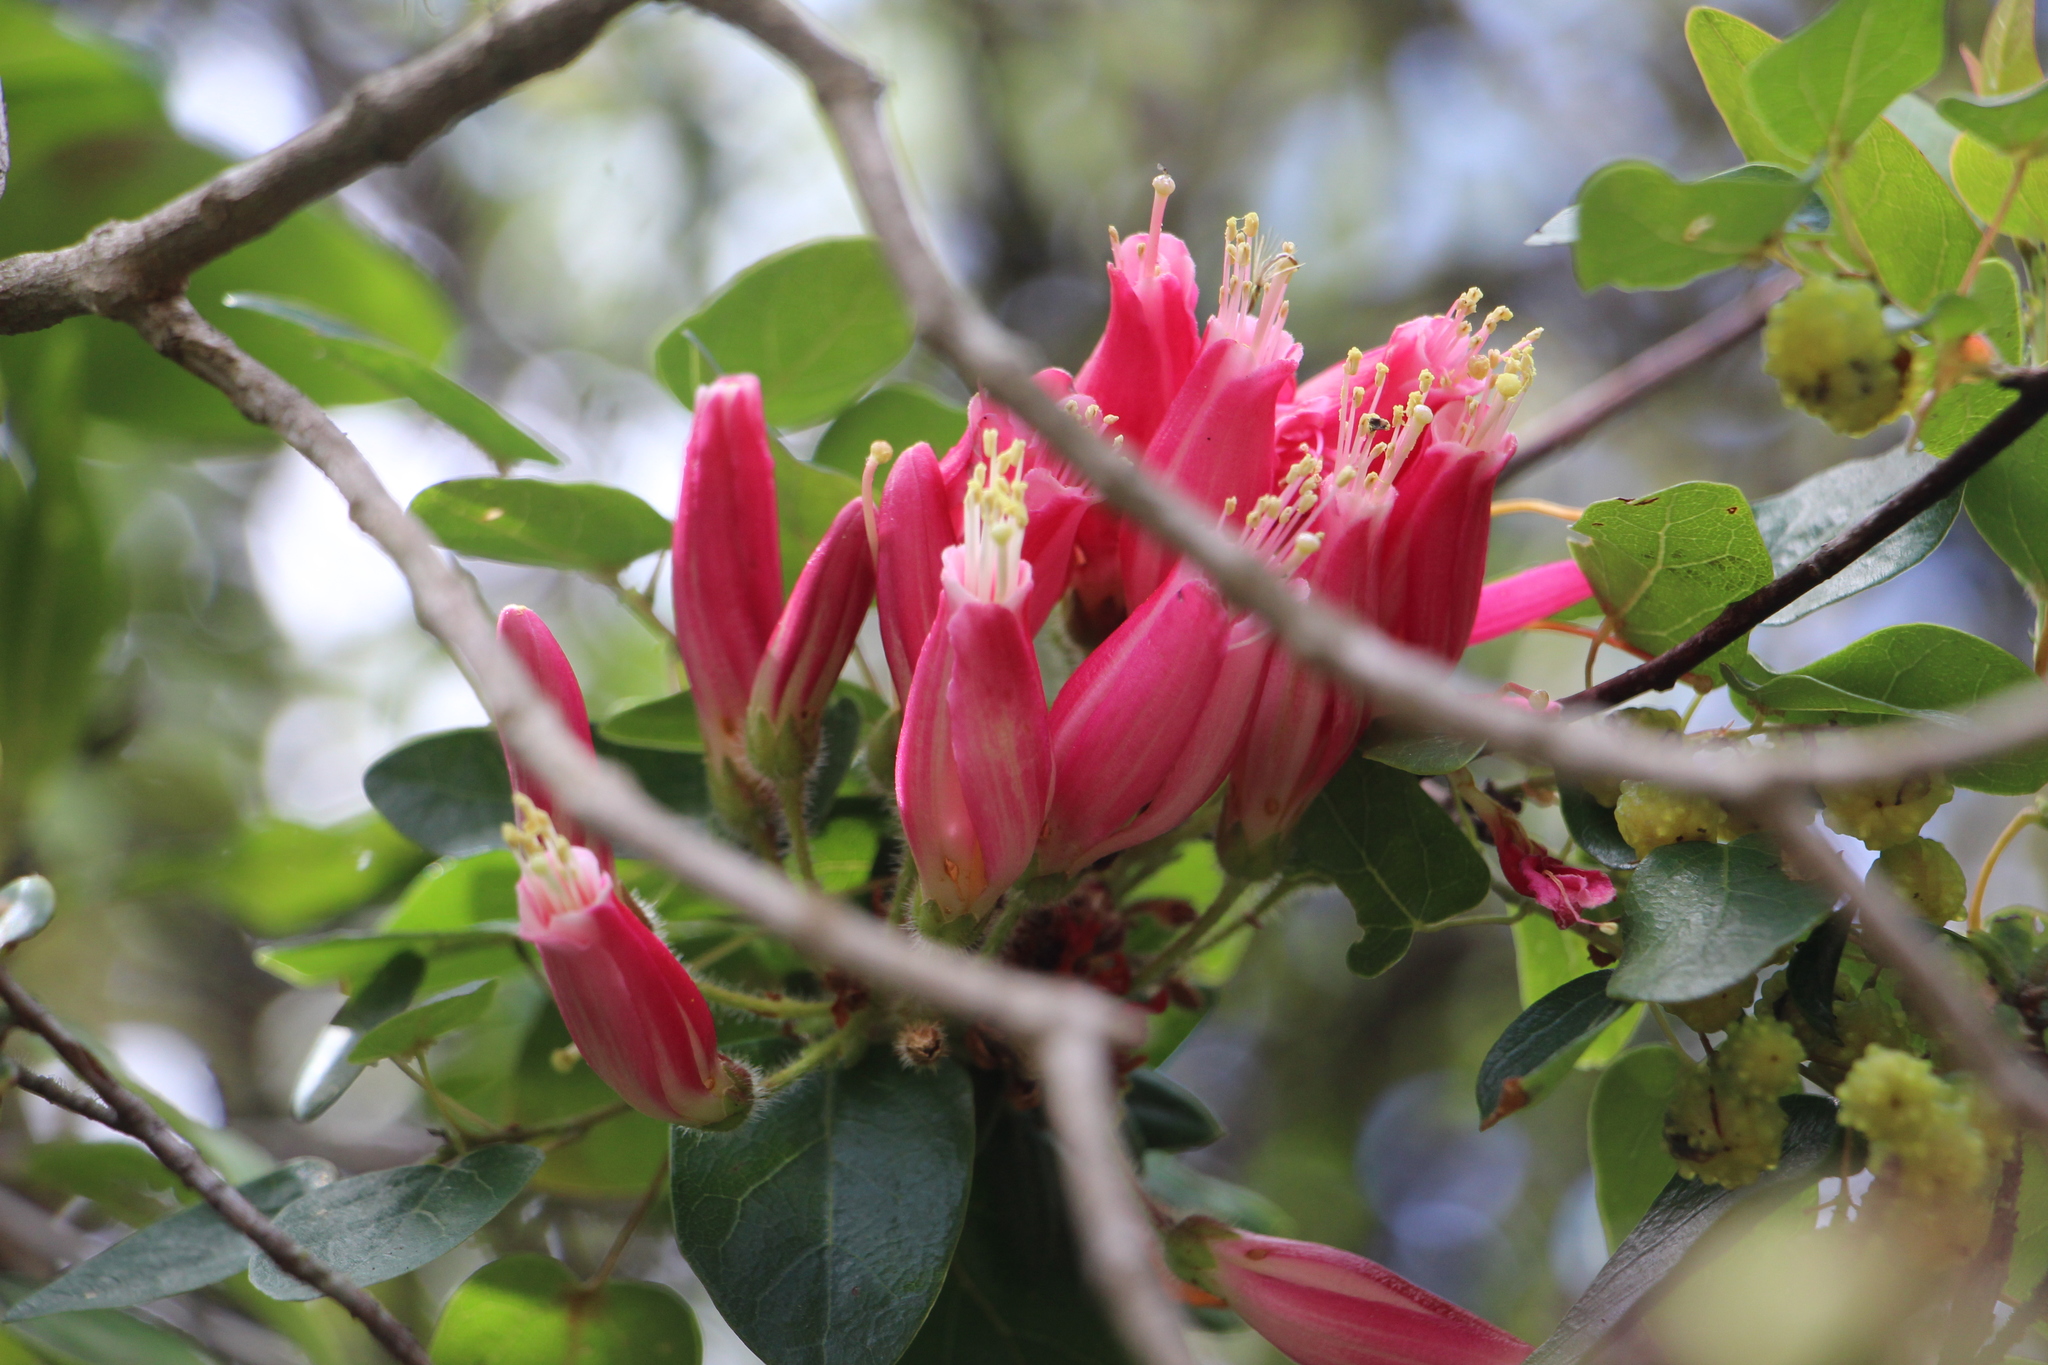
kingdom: Plantae
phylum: Tracheophyta
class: Magnoliopsida
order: Ericales
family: Ericaceae
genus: Bejaria
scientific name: Bejaria resinosa
